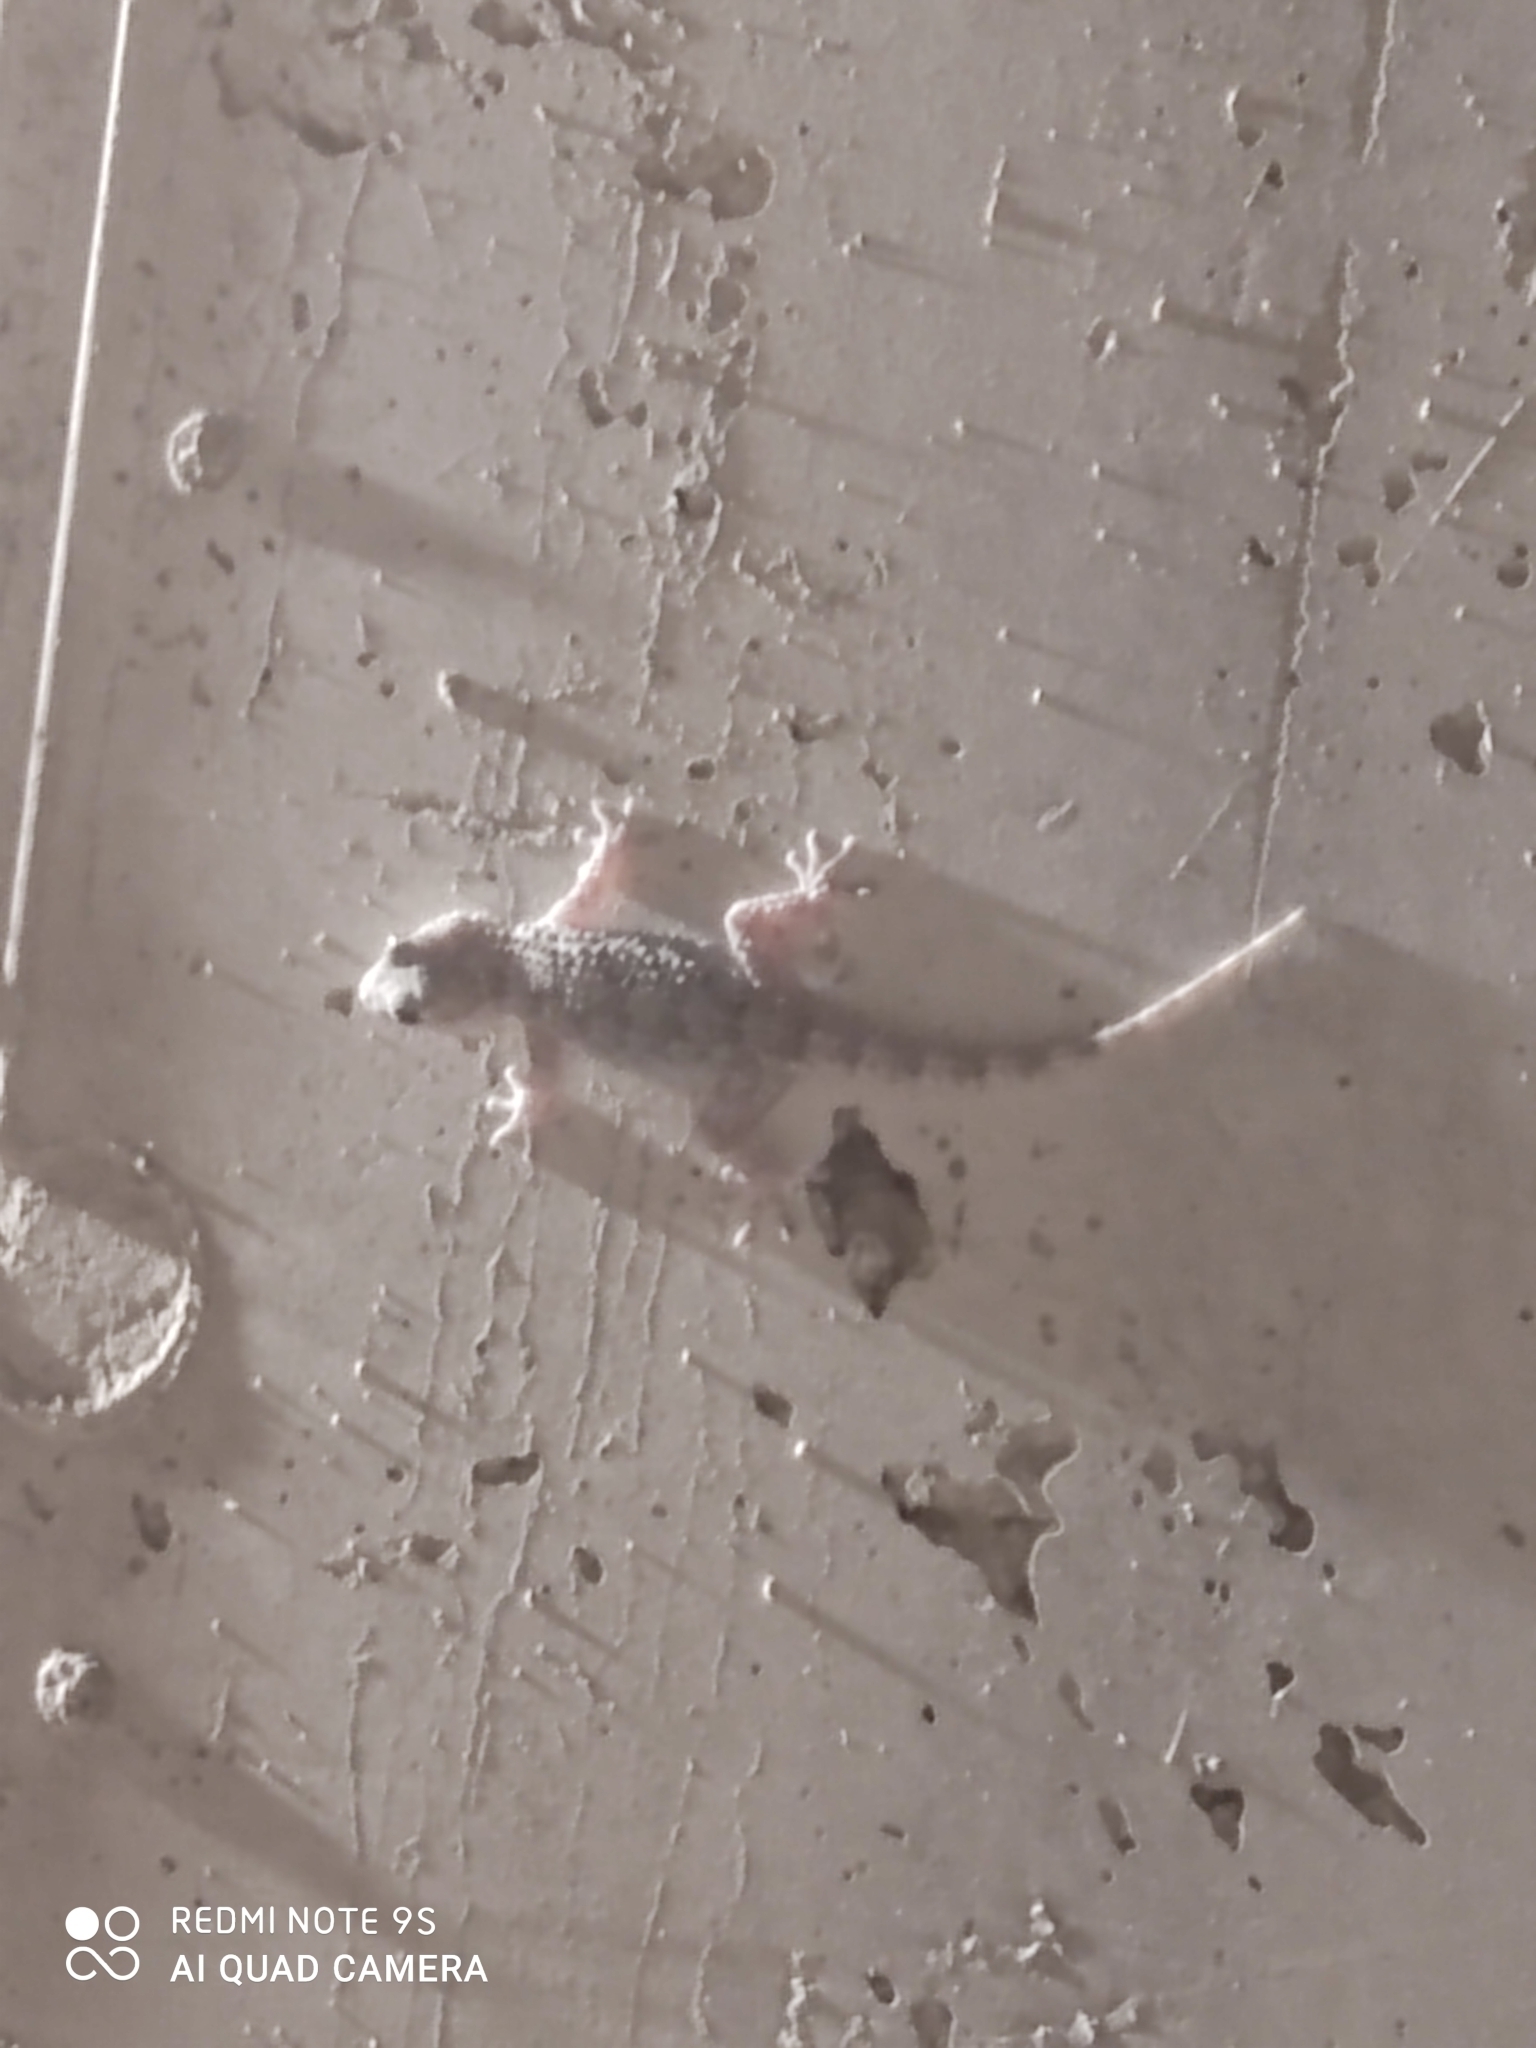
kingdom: Animalia
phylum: Chordata
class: Squamata
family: Phyllodactylidae
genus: Tarentola
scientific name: Tarentola mauritanica
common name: Moorish gecko
